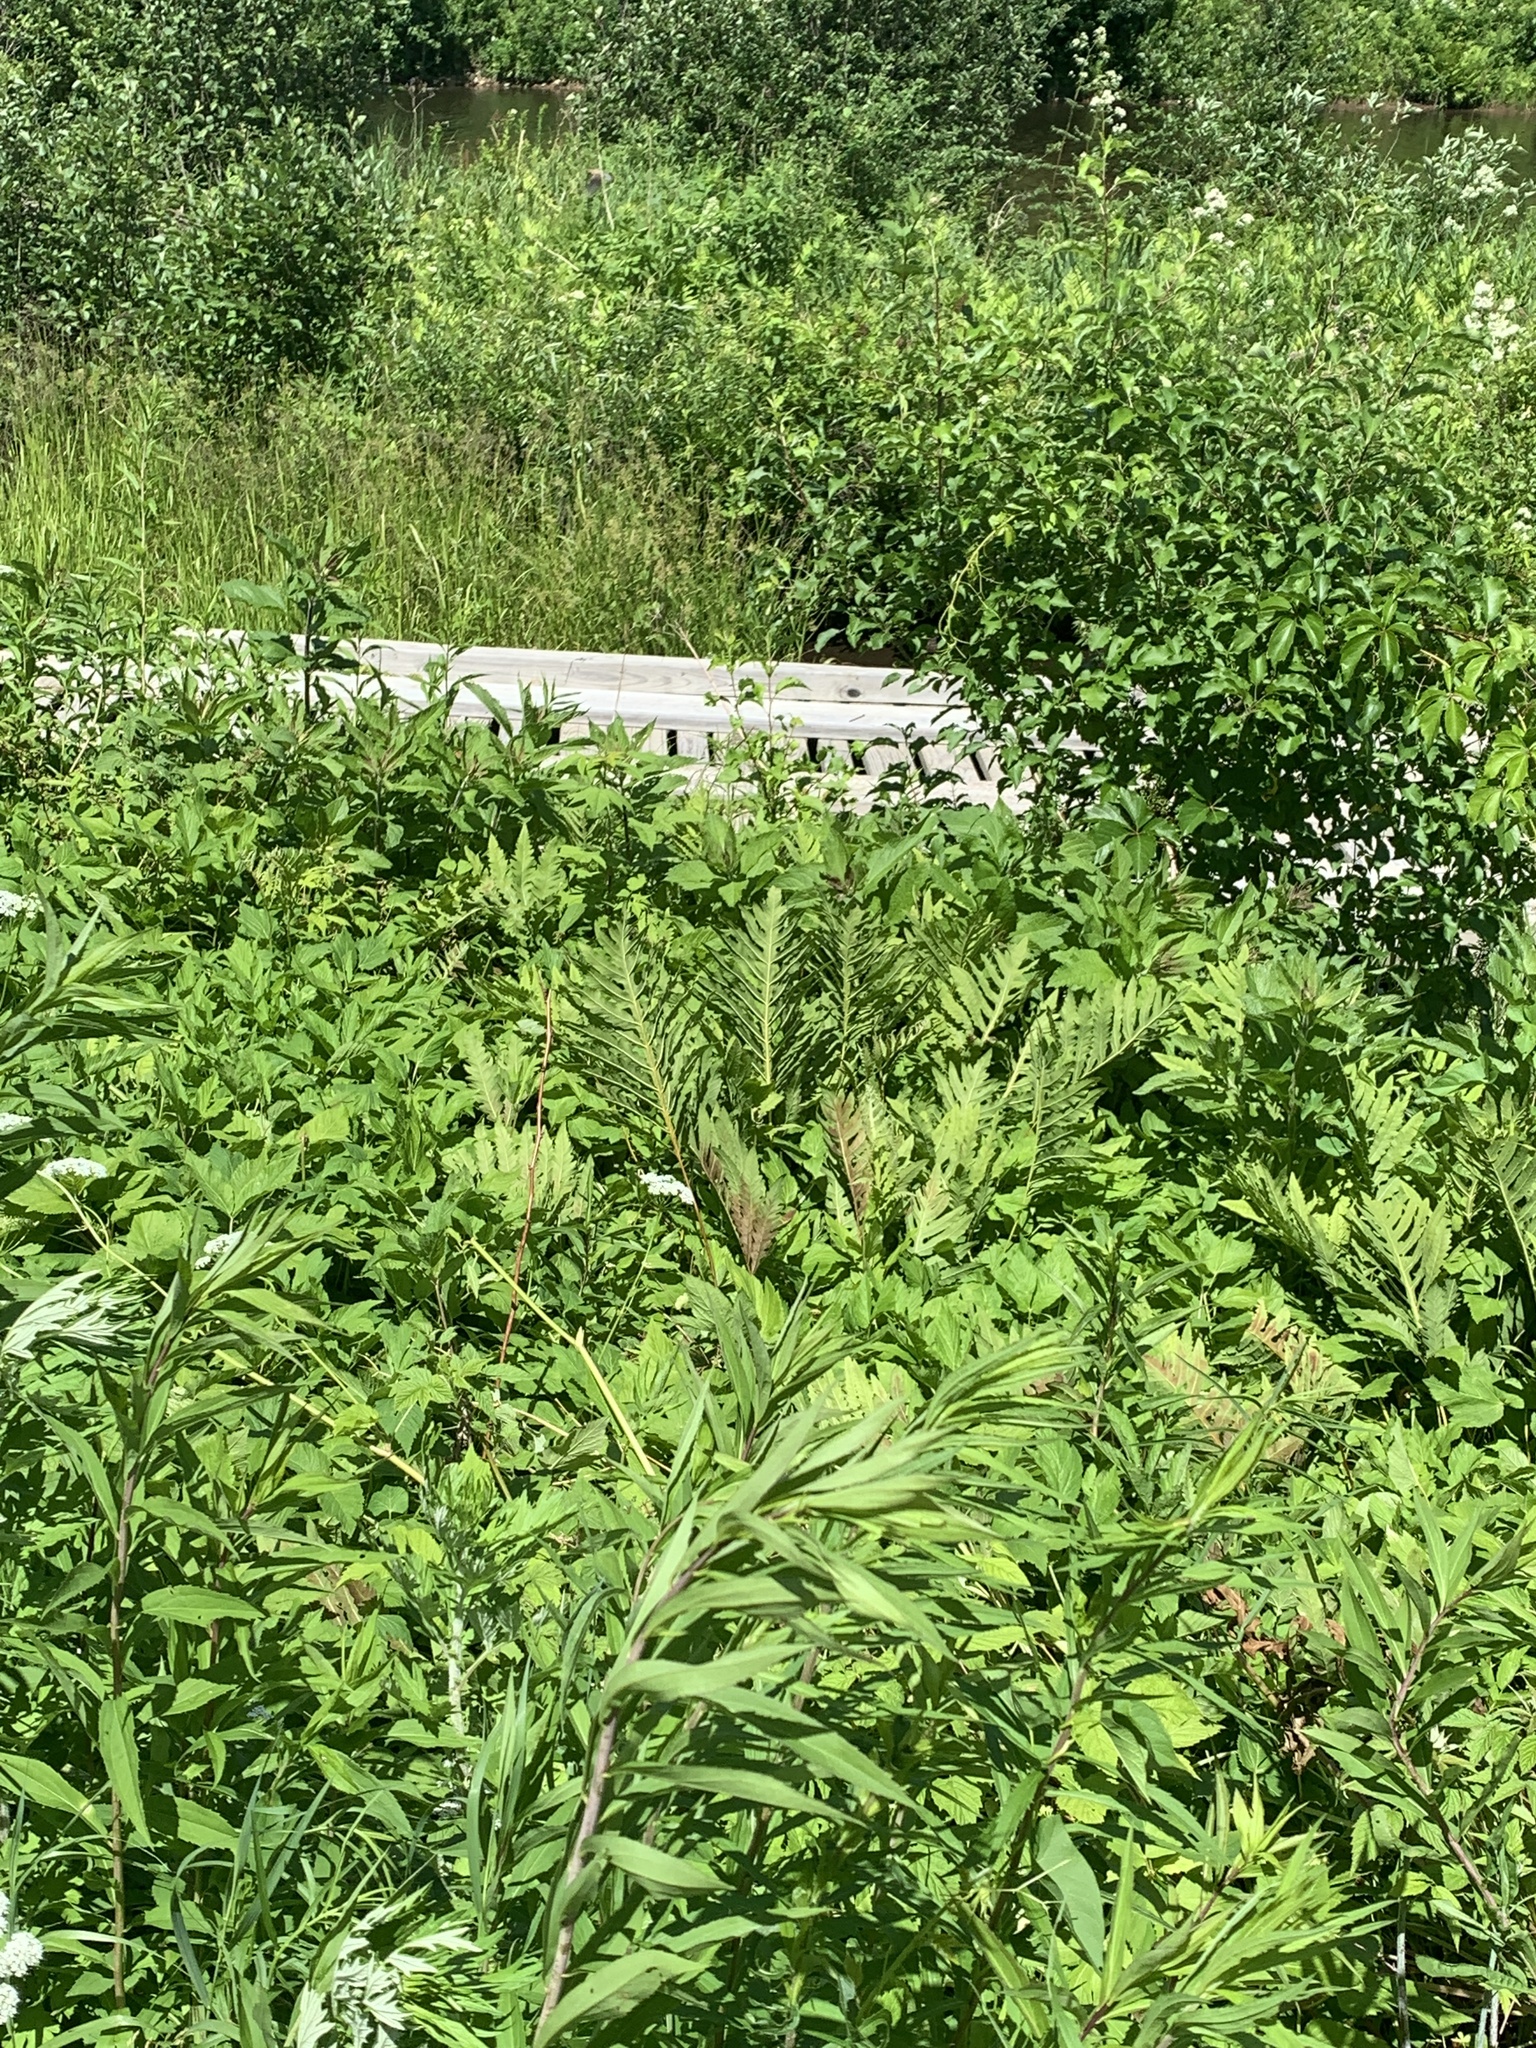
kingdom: Plantae
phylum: Tracheophyta
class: Polypodiopsida
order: Polypodiales
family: Onocleaceae
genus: Onoclea
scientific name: Onoclea sensibilis
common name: Sensitive fern
